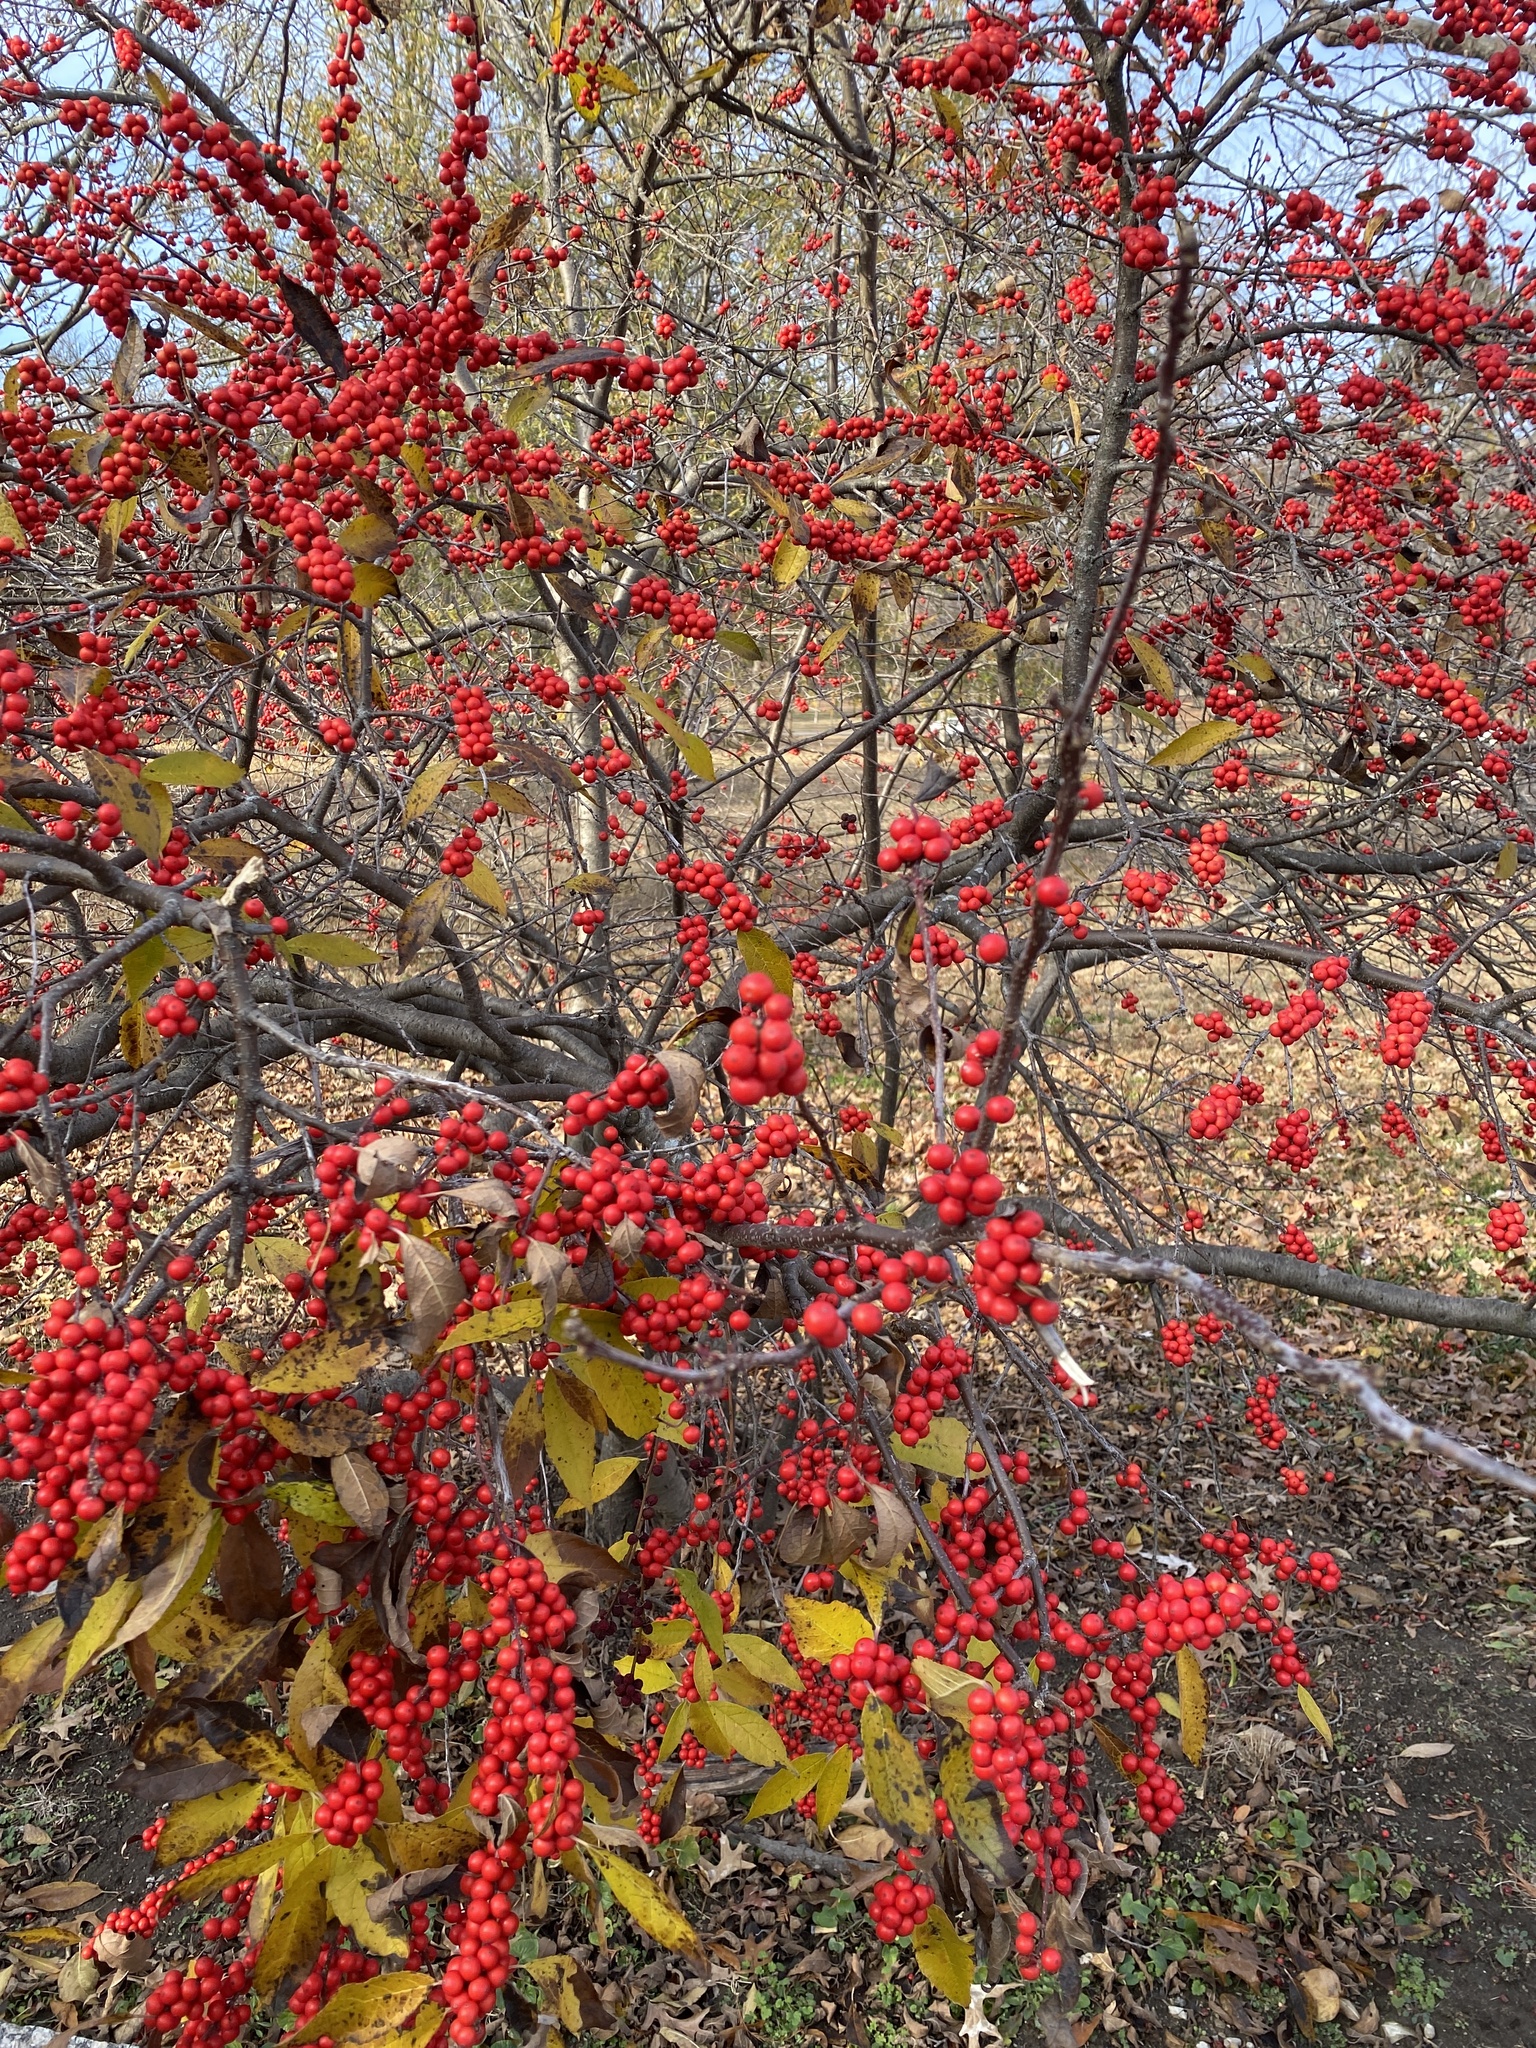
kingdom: Plantae
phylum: Tracheophyta
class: Magnoliopsida
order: Aquifoliales
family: Aquifoliaceae
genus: Ilex
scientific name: Ilex verticillata
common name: Virginia winterberry
